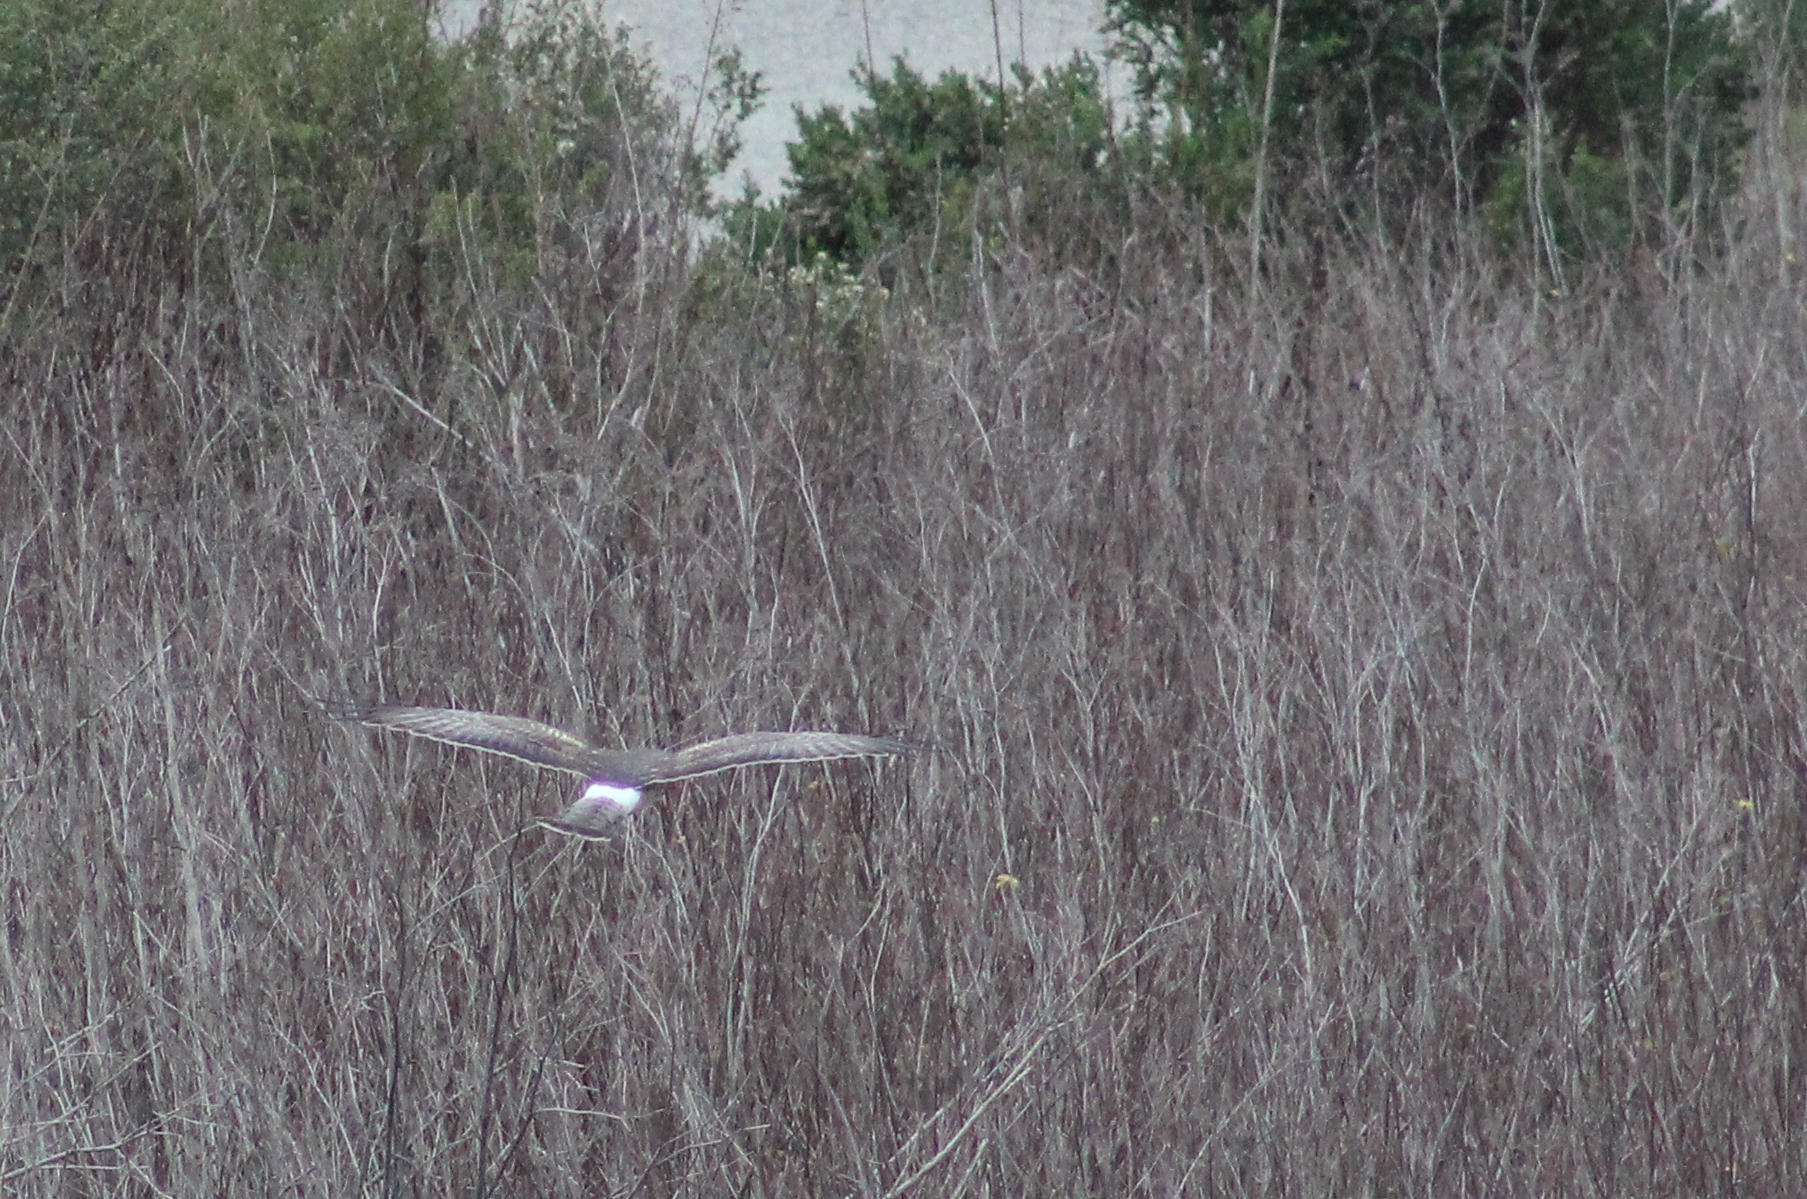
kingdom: Animalia
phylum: Chordata
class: Aves
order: Accipitriformes
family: Accipitridae
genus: Circus
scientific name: Circus cyaneus
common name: Hen harrier
